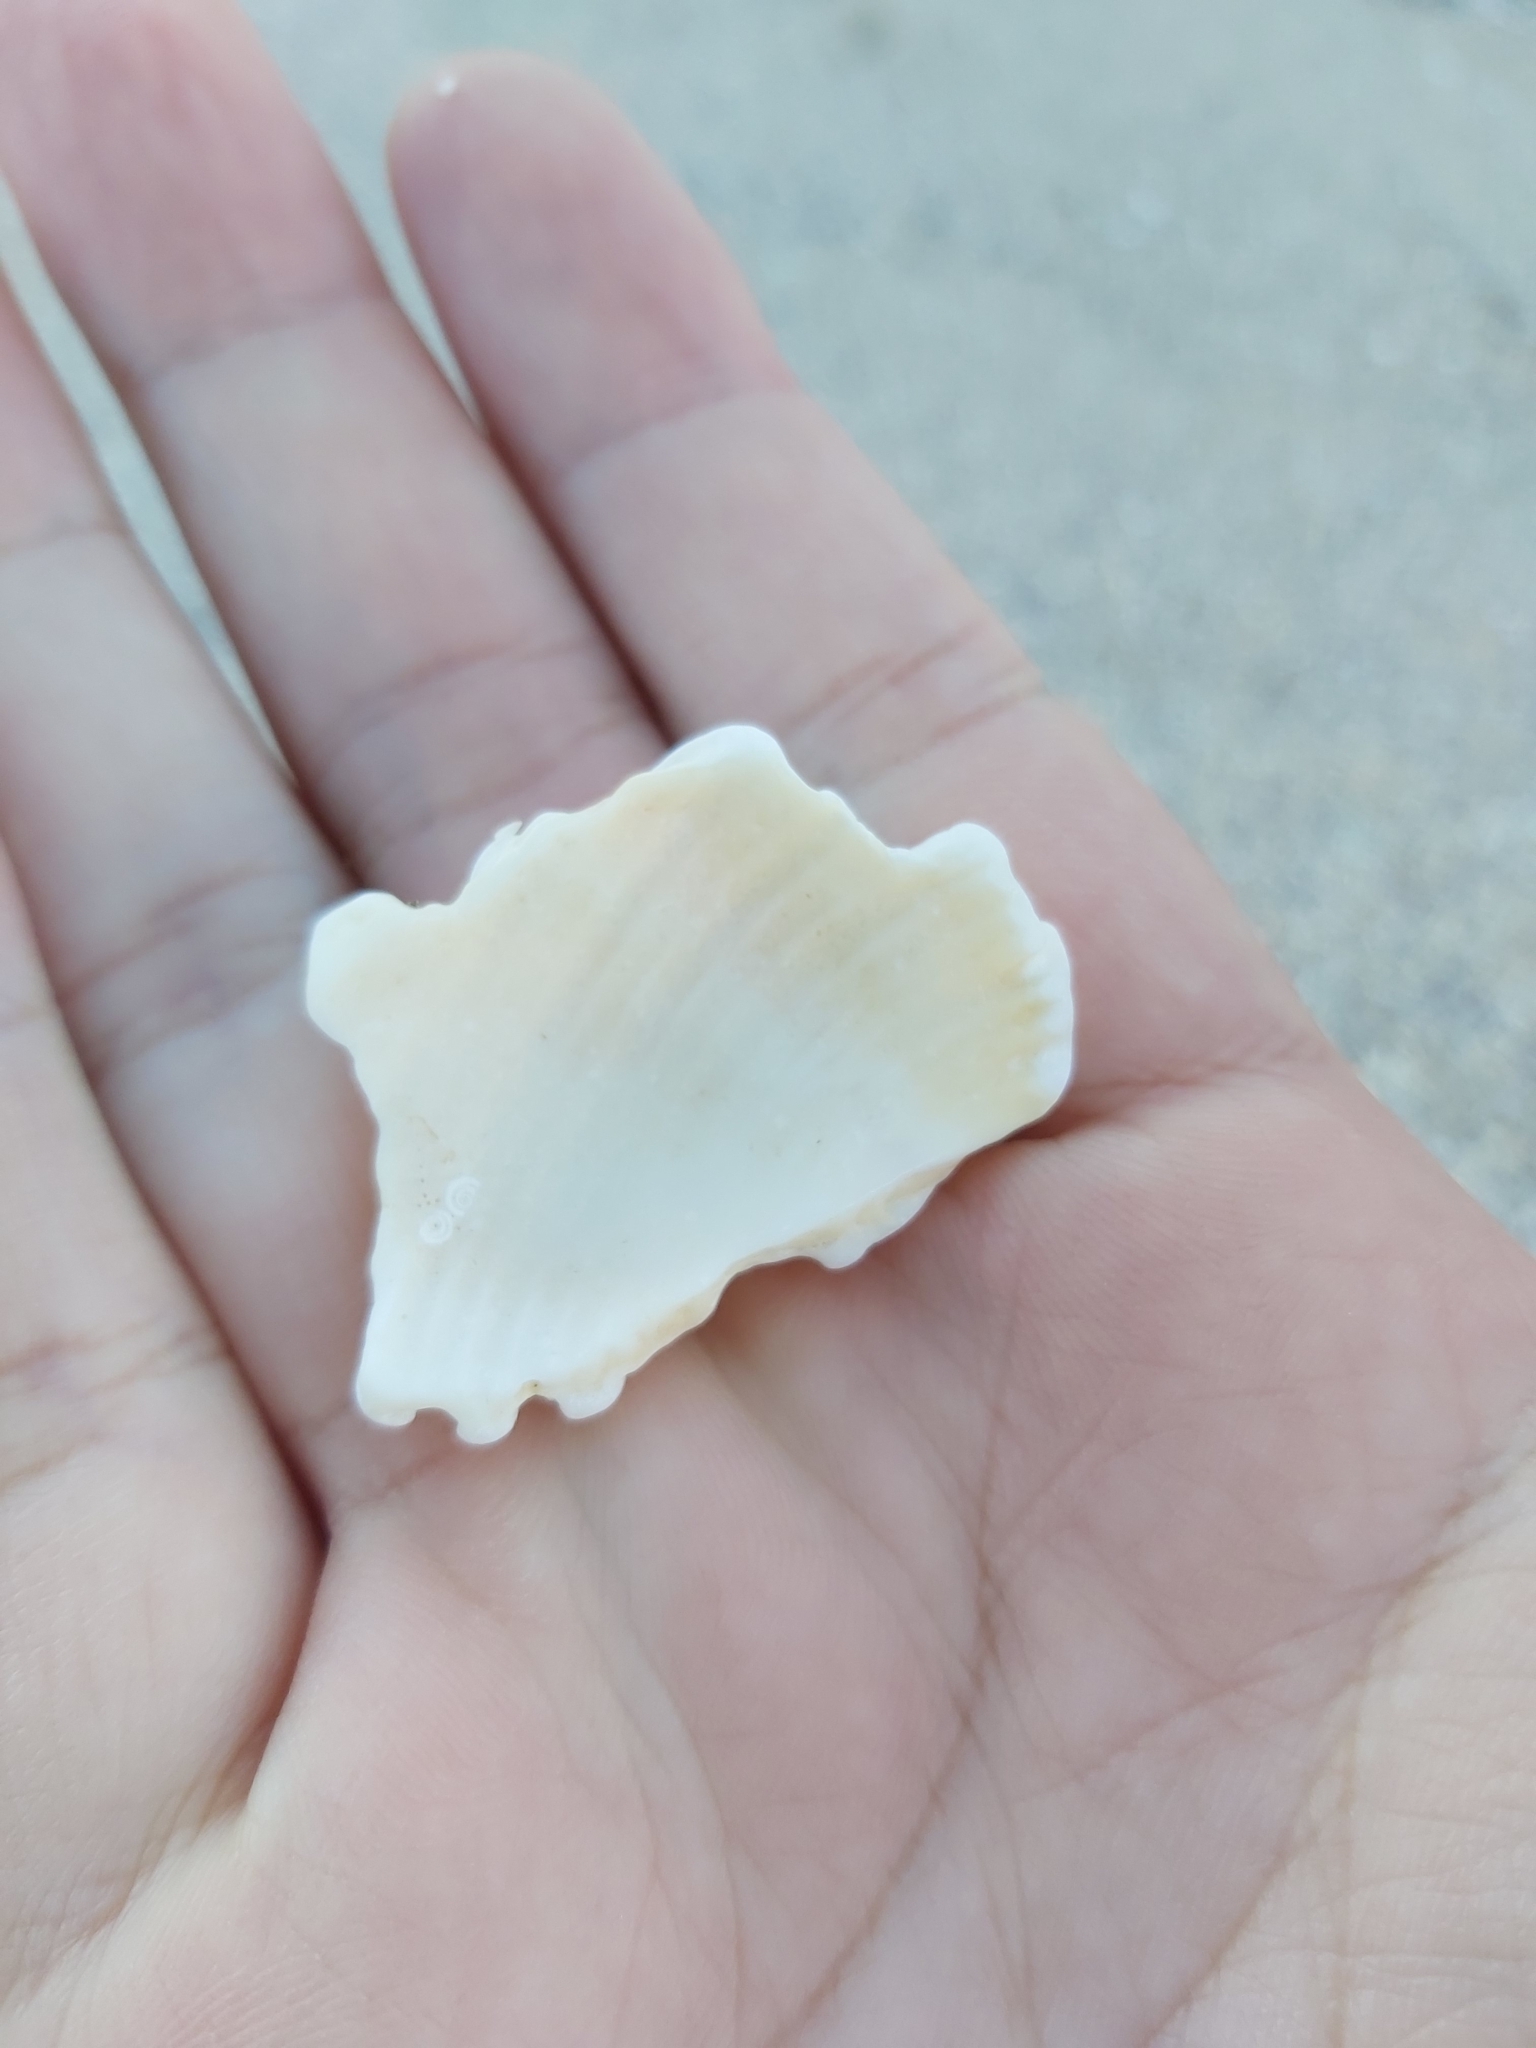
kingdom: Animalia
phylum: Mollusca
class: Gastropoda
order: Neogastropoda
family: Muricidae
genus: Dicathais
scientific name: Dicathais orbita
